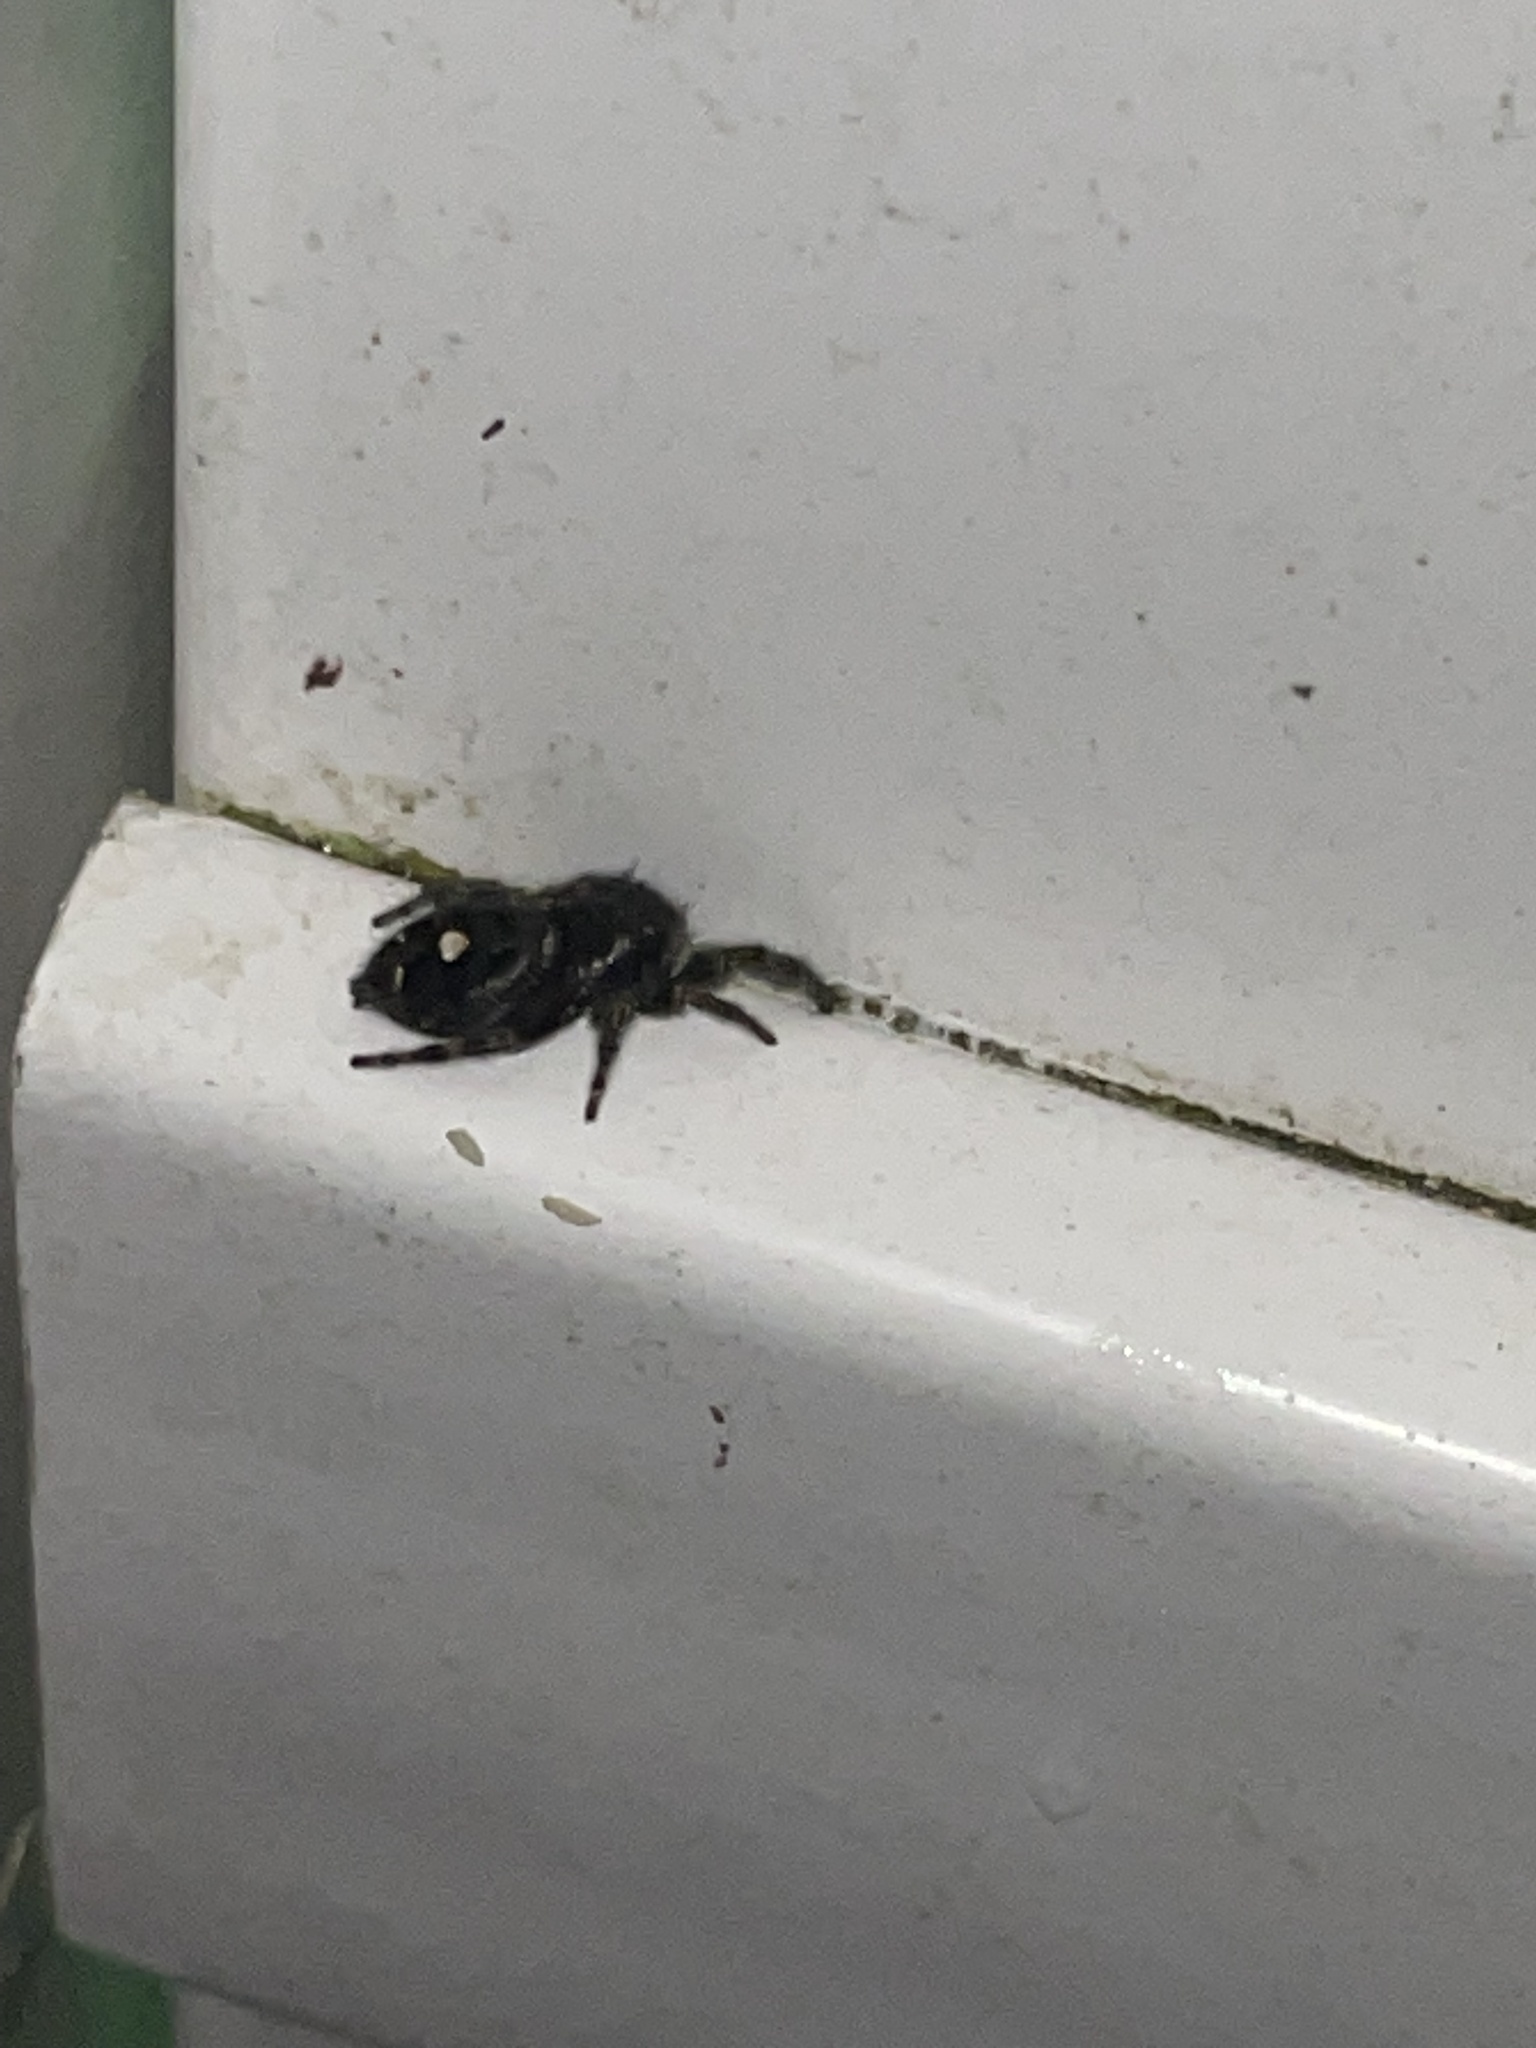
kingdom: Animalia
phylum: Arthropoda
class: Arachnida
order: Araneae
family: Salticidae
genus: Phidippus
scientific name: Phidippus audax
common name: Bold jumper
